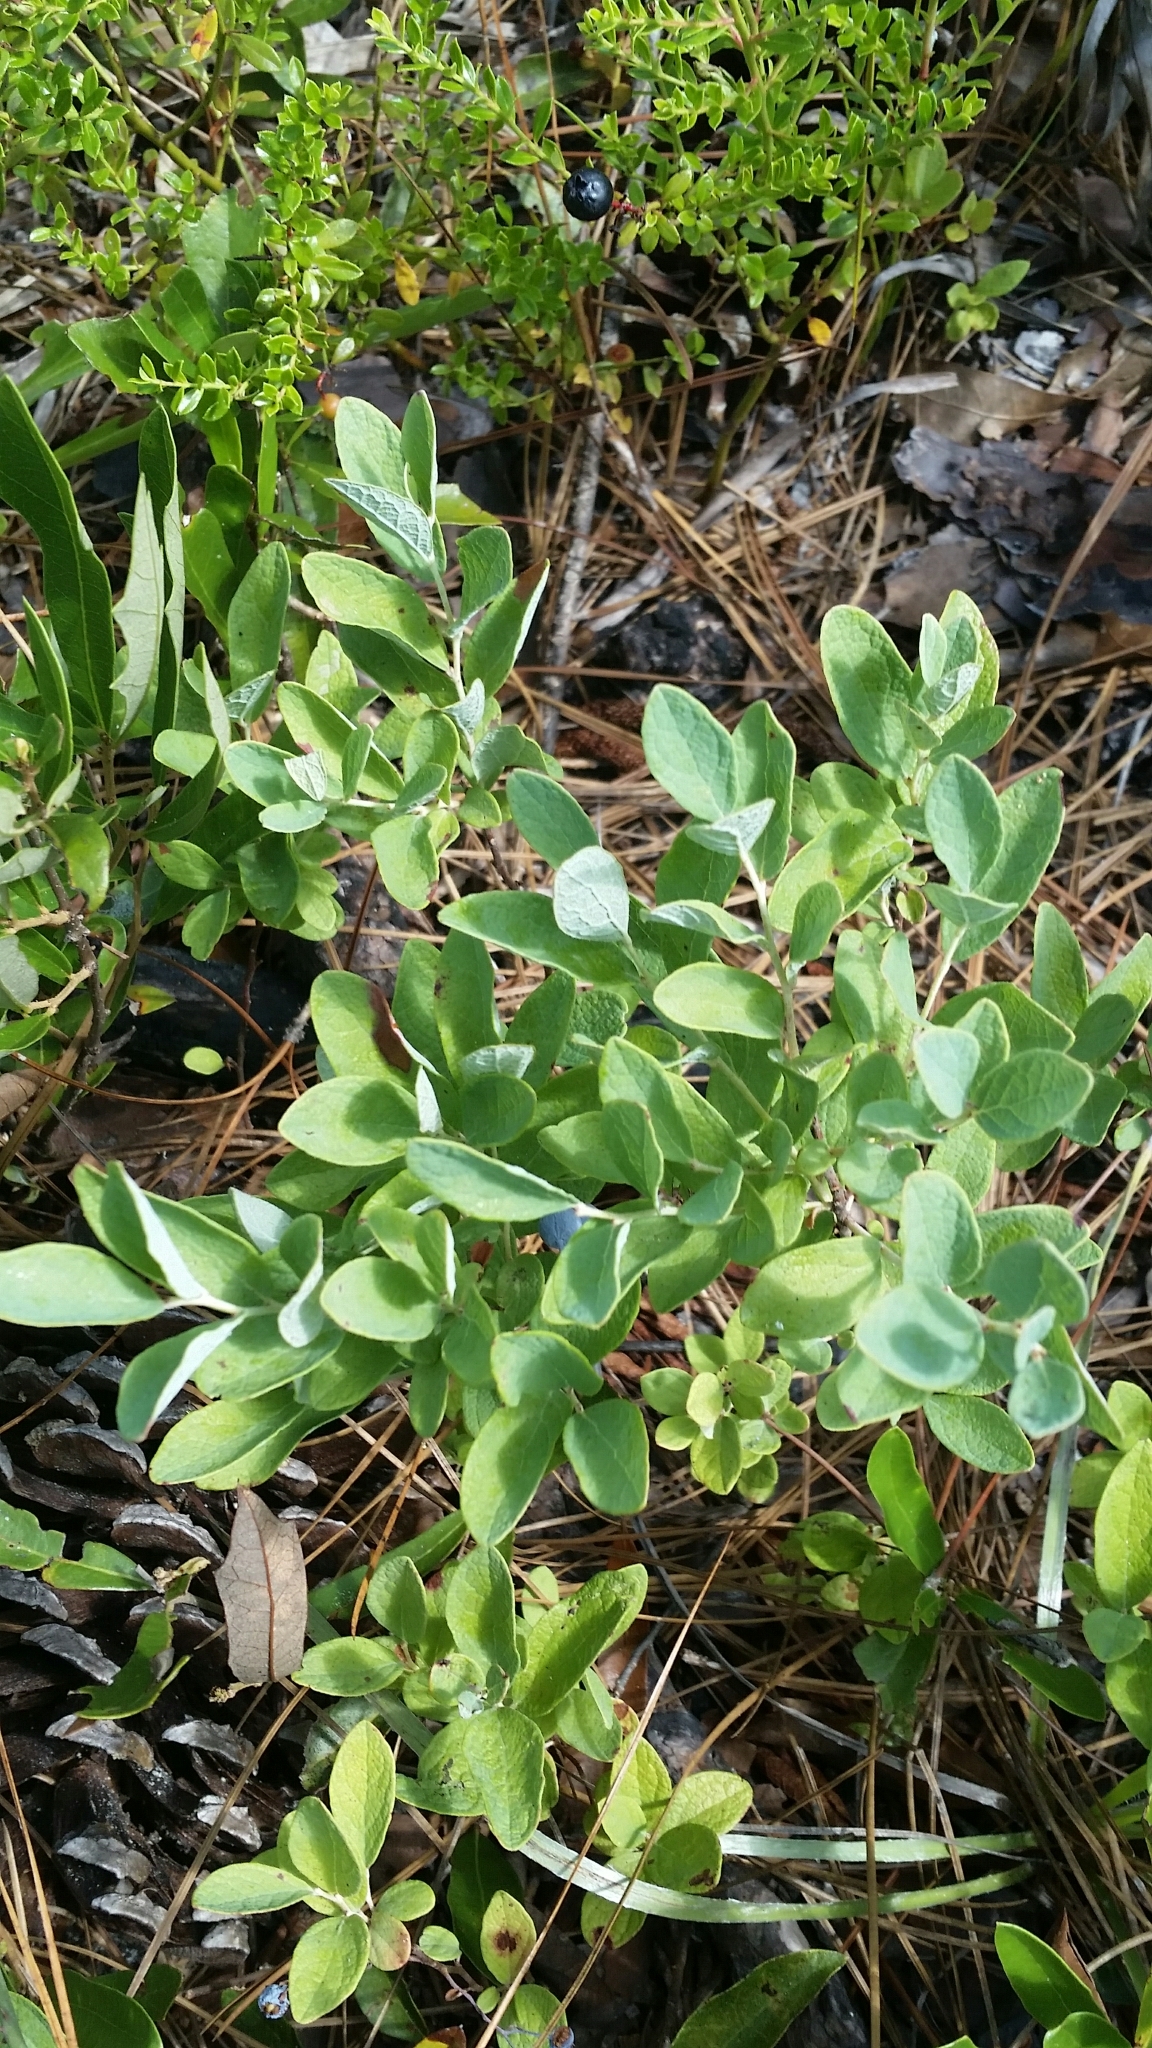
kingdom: Plantae
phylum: Tracheophyta
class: Magnoliopsida
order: Ericales
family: Ericaceae
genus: Gaylussacia
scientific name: Gaylussacia nana
